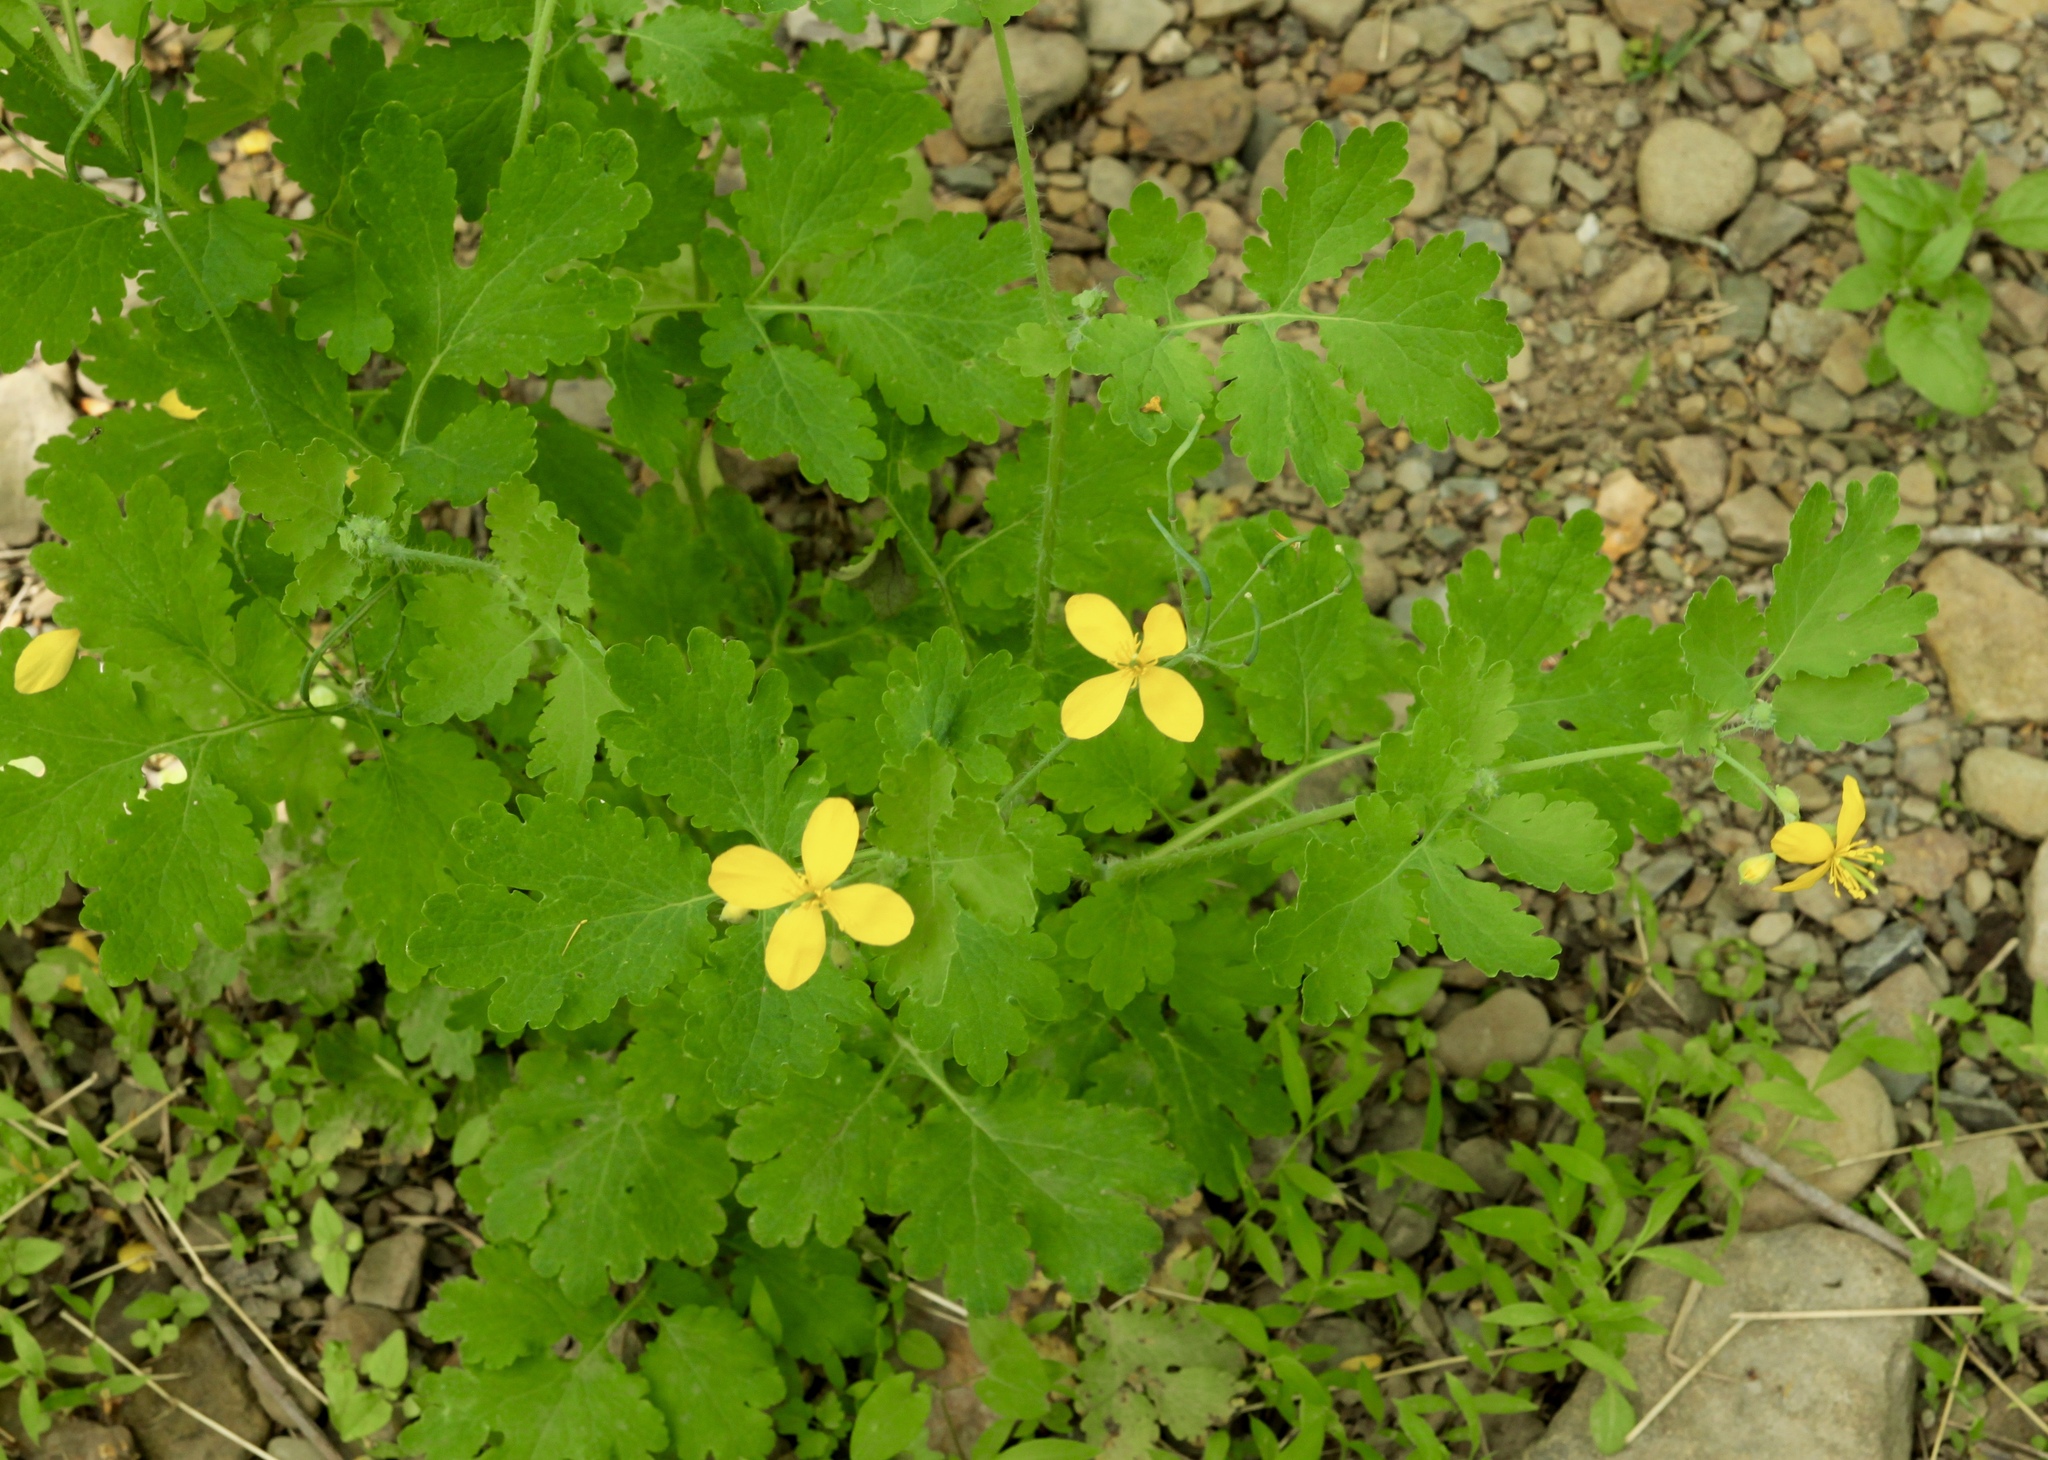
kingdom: Plantae
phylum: Tracheophyta
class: Magnoliopsida
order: Ranunculales
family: Papaveraceae
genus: Chelidonium
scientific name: Chelidonium majus
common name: Greater celandine
